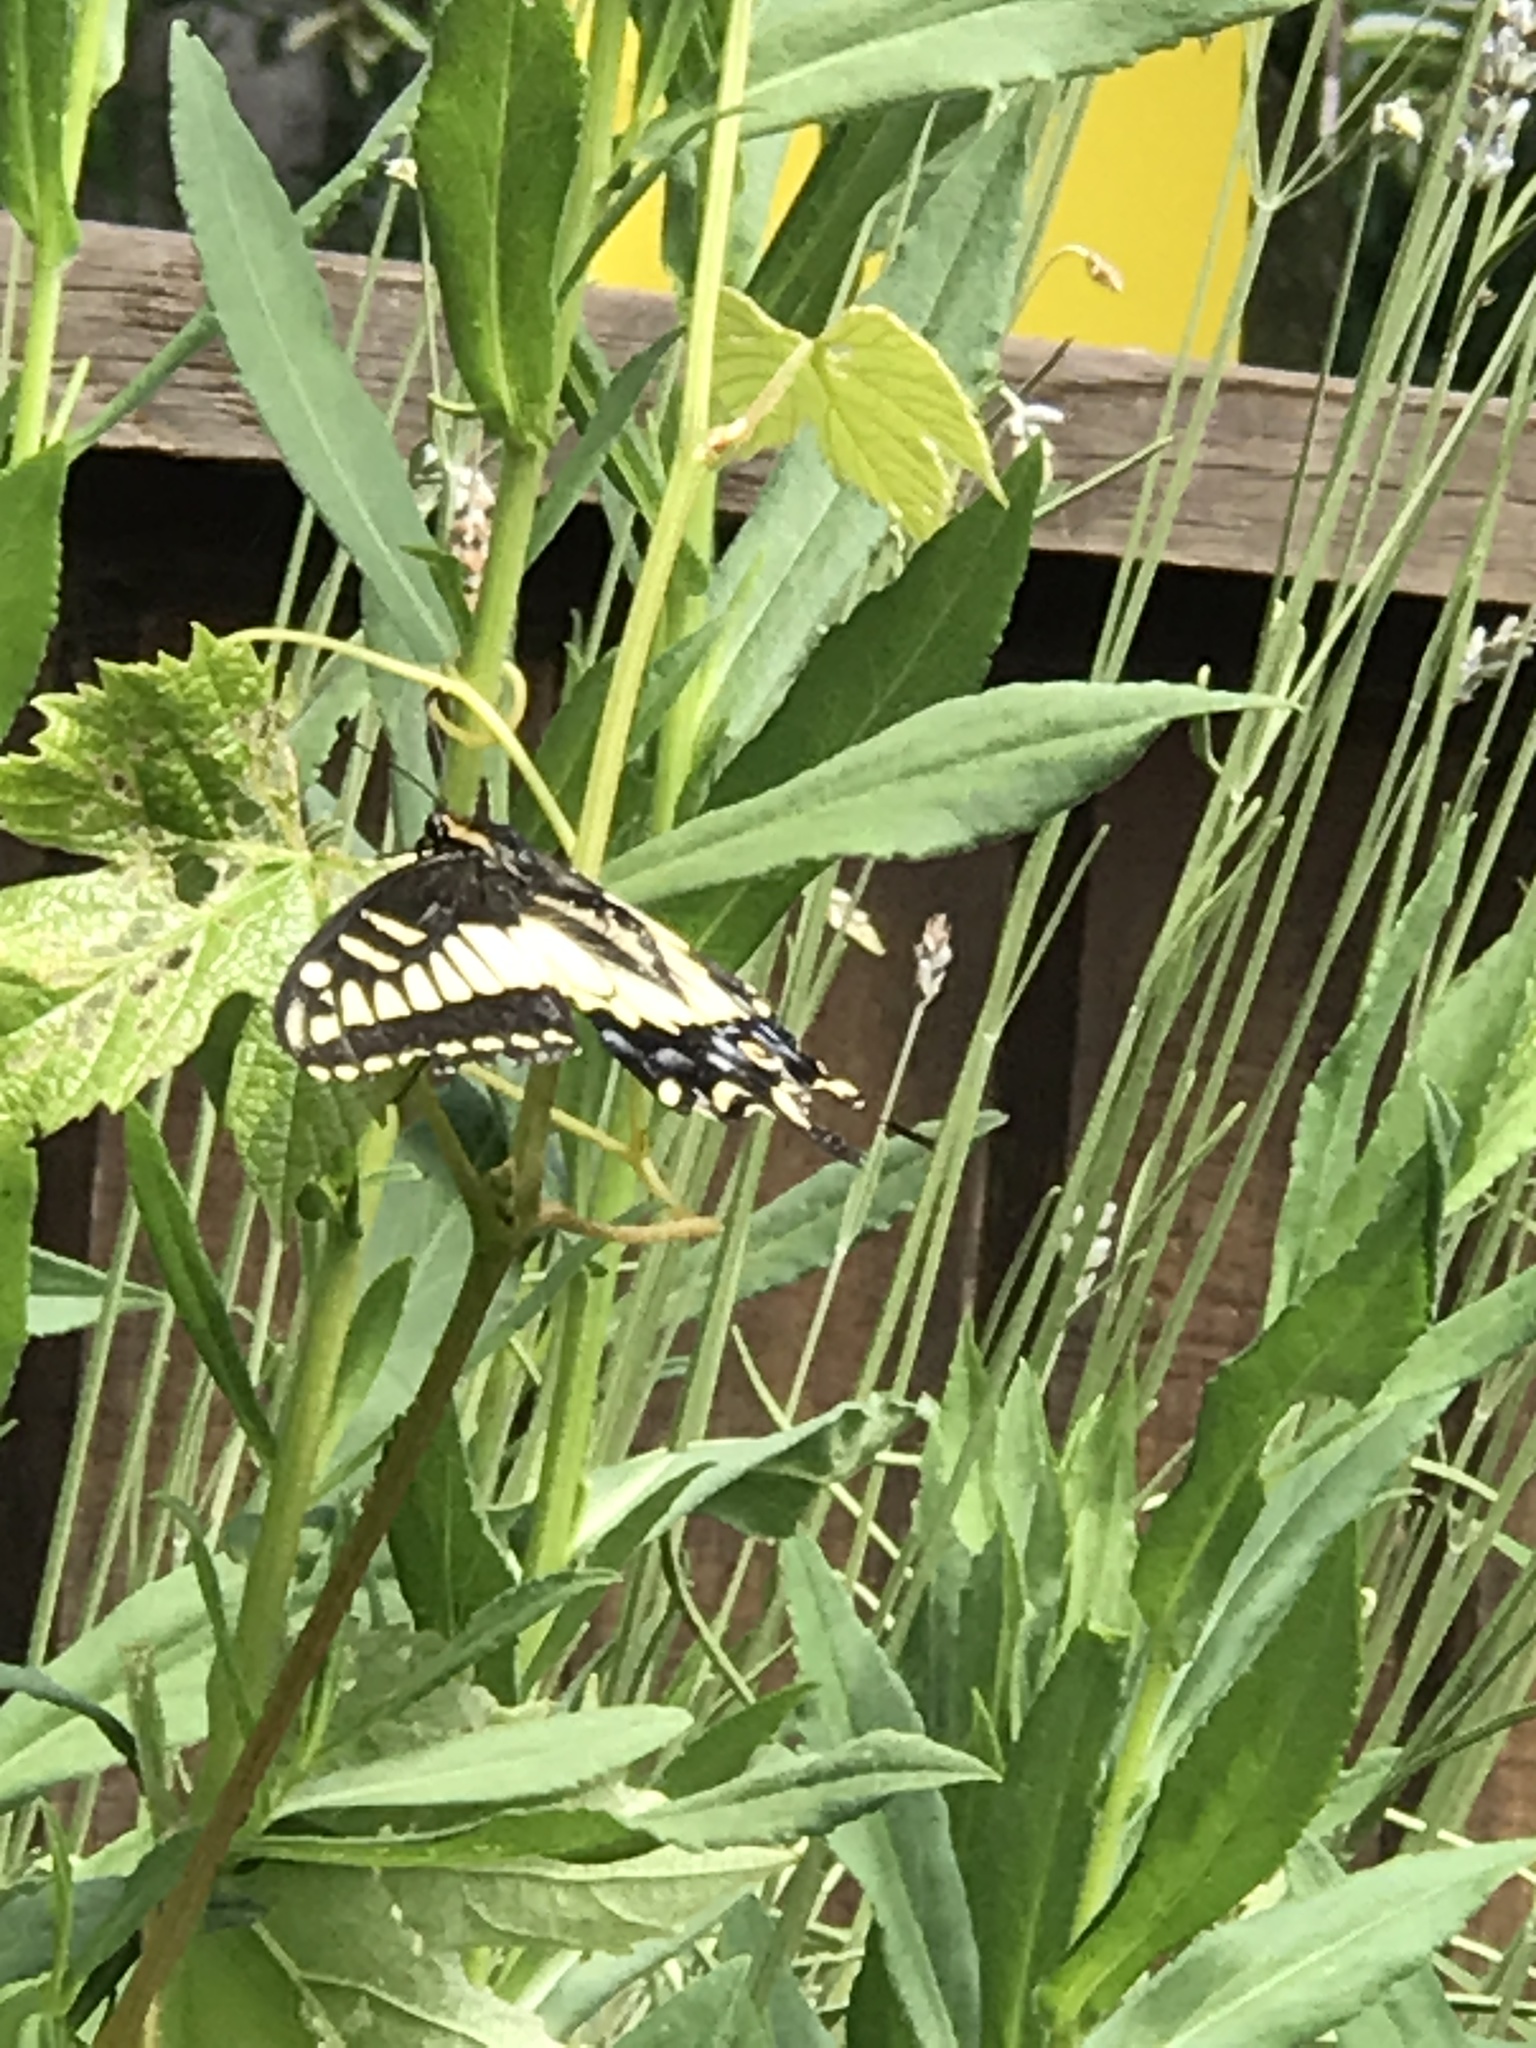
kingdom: Animalia
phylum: Arthropoda
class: Insecta
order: Lepidoptera
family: Papilionidae
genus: Papilio
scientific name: Papilio zelicaon
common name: Anise swallowtail
